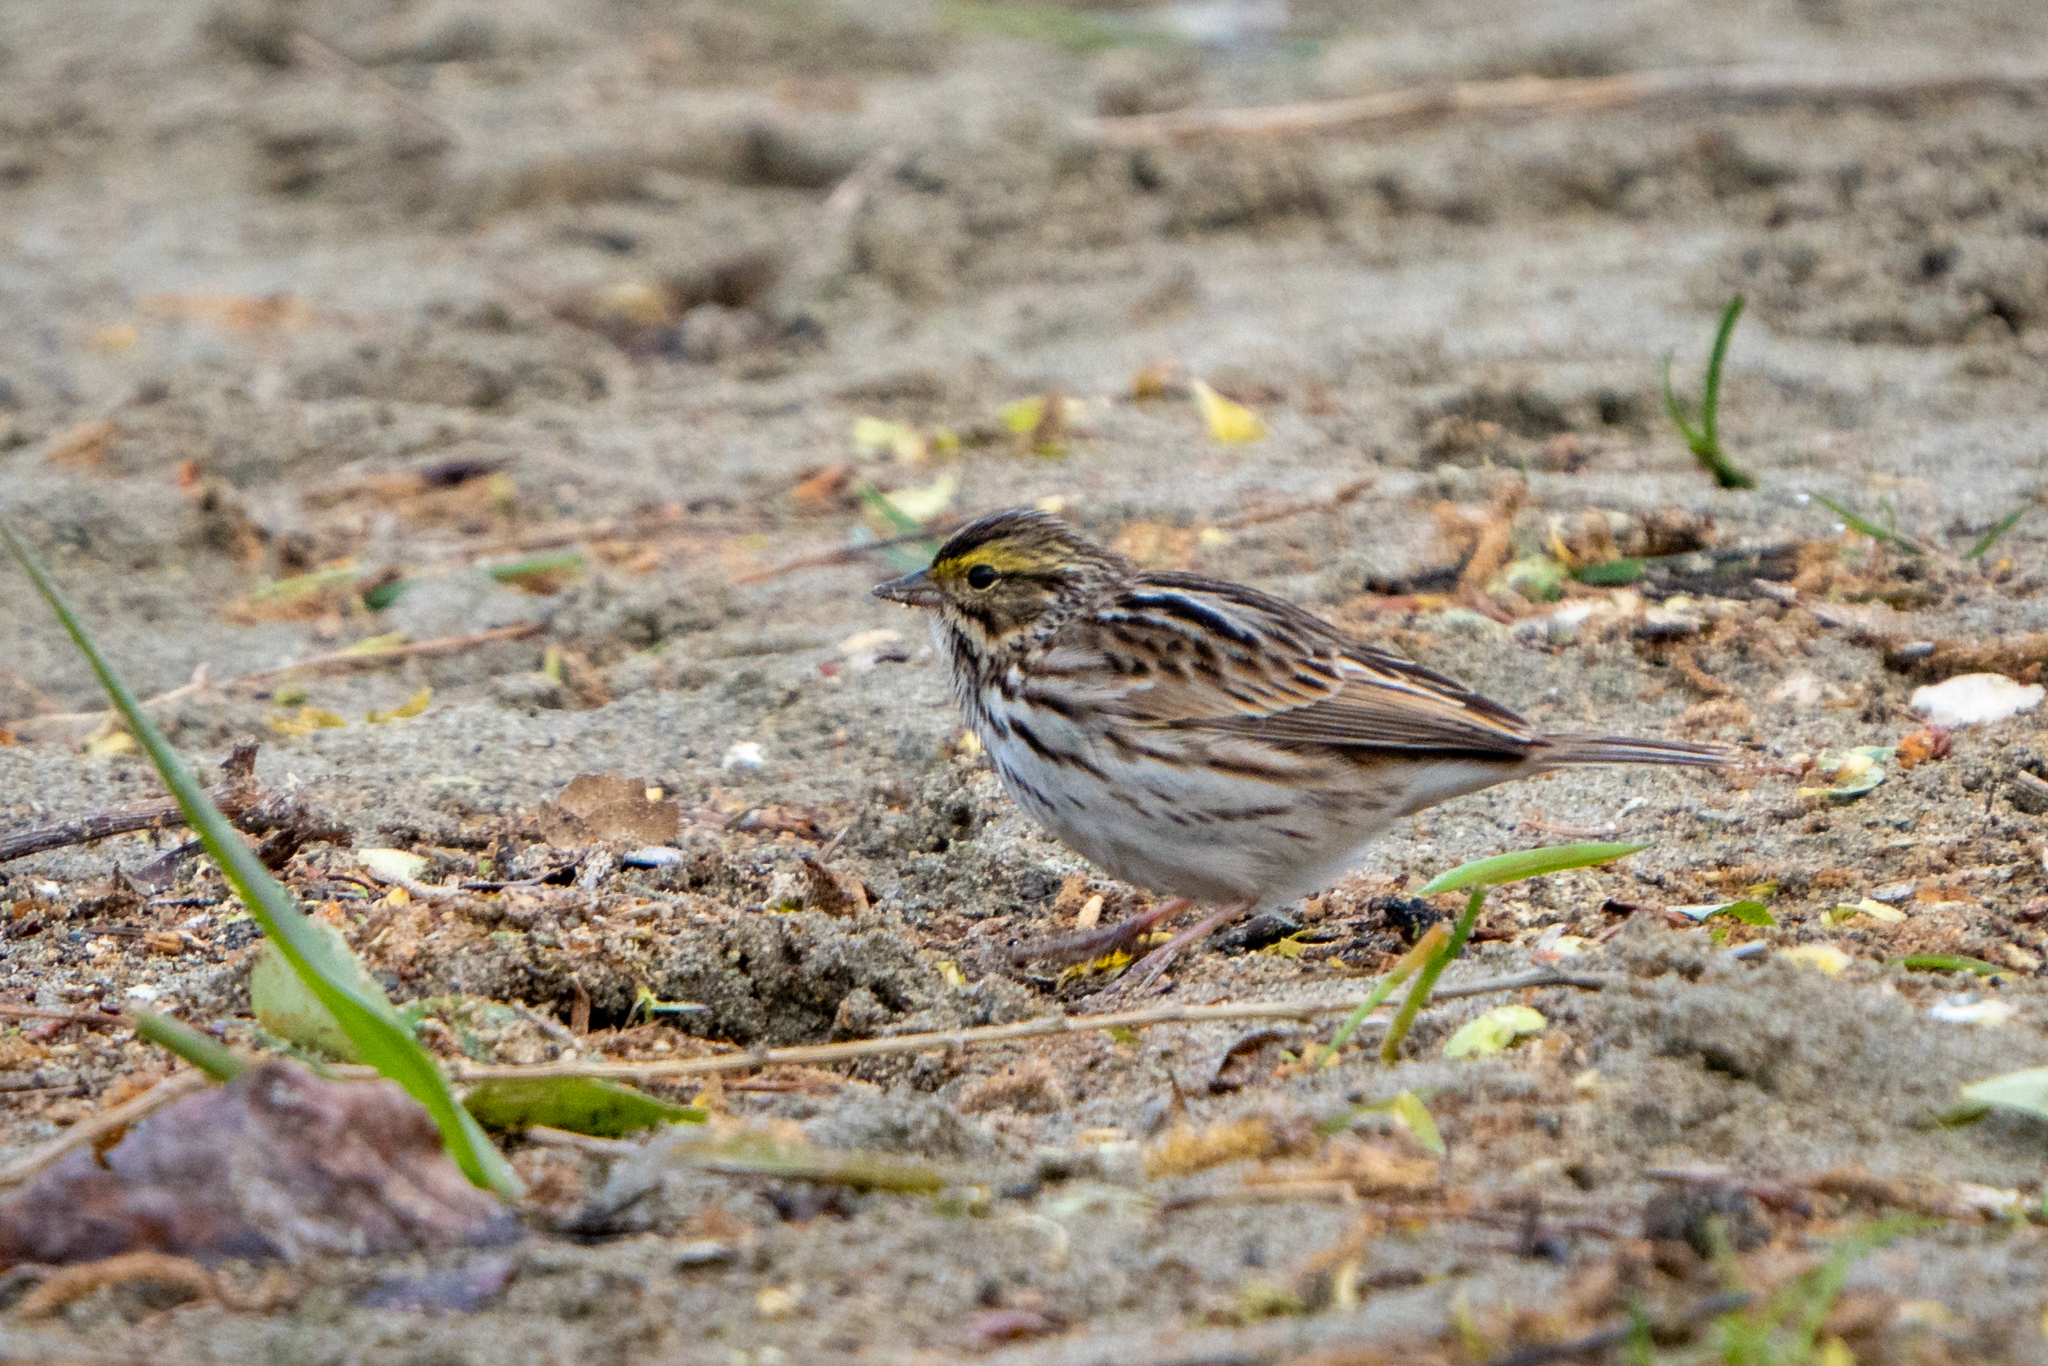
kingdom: Animalia
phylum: Chordata
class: Aves
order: Passeriformes
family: Passerellidae
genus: Passerculus
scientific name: Passerculus sandwichensis
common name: Savannah sparrow
